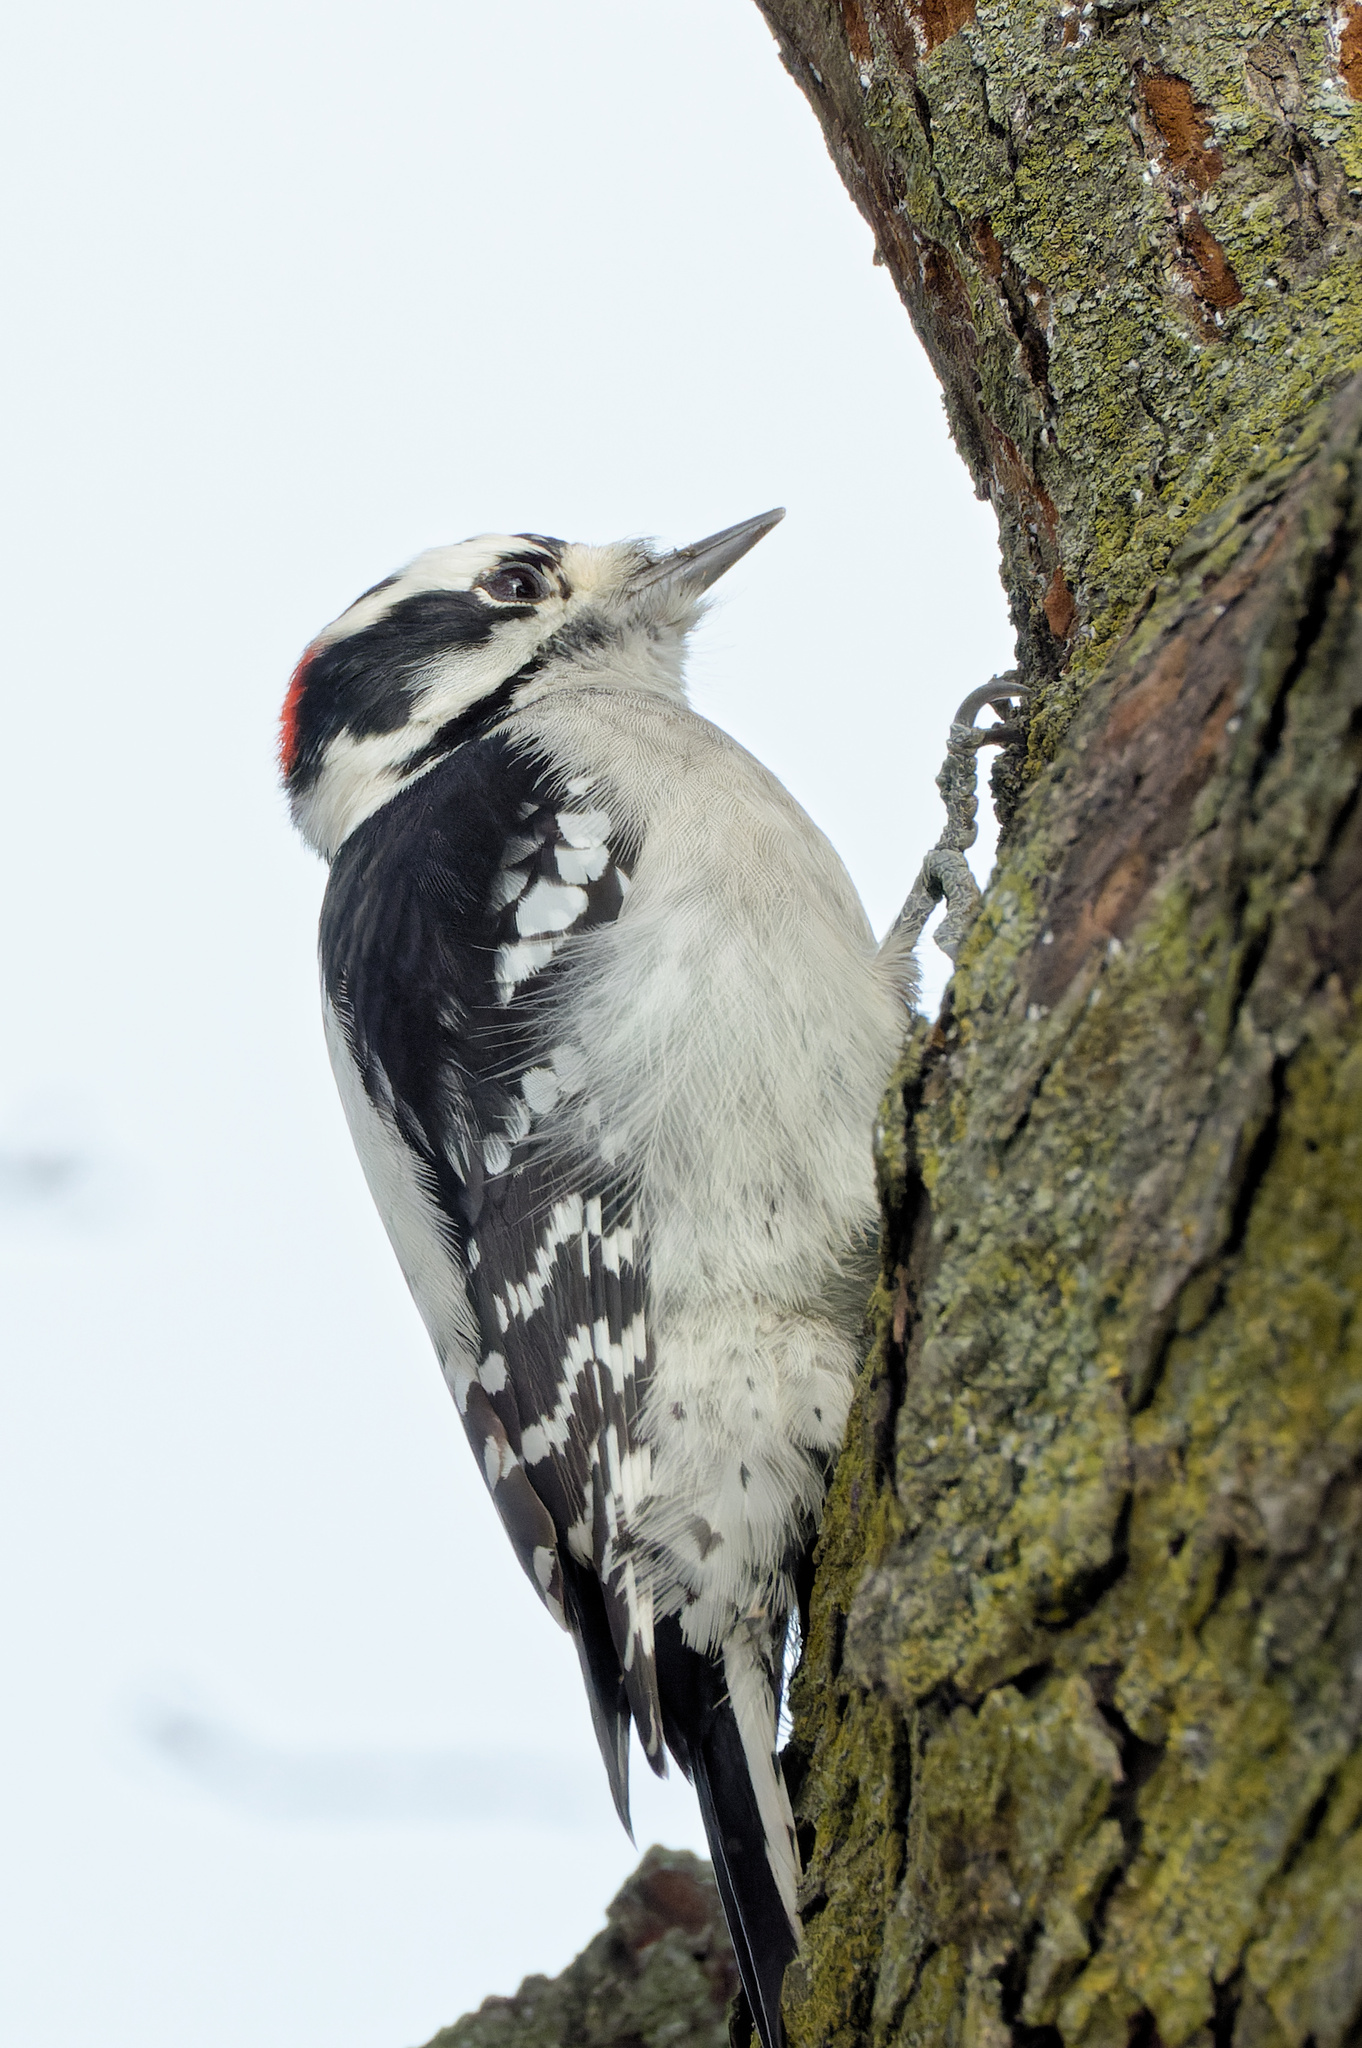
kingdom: Animalia
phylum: Chordata
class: Aves
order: Piciformes
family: Picidae
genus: Dryobates
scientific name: Dryobates pubescens
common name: Downy woodpecker
